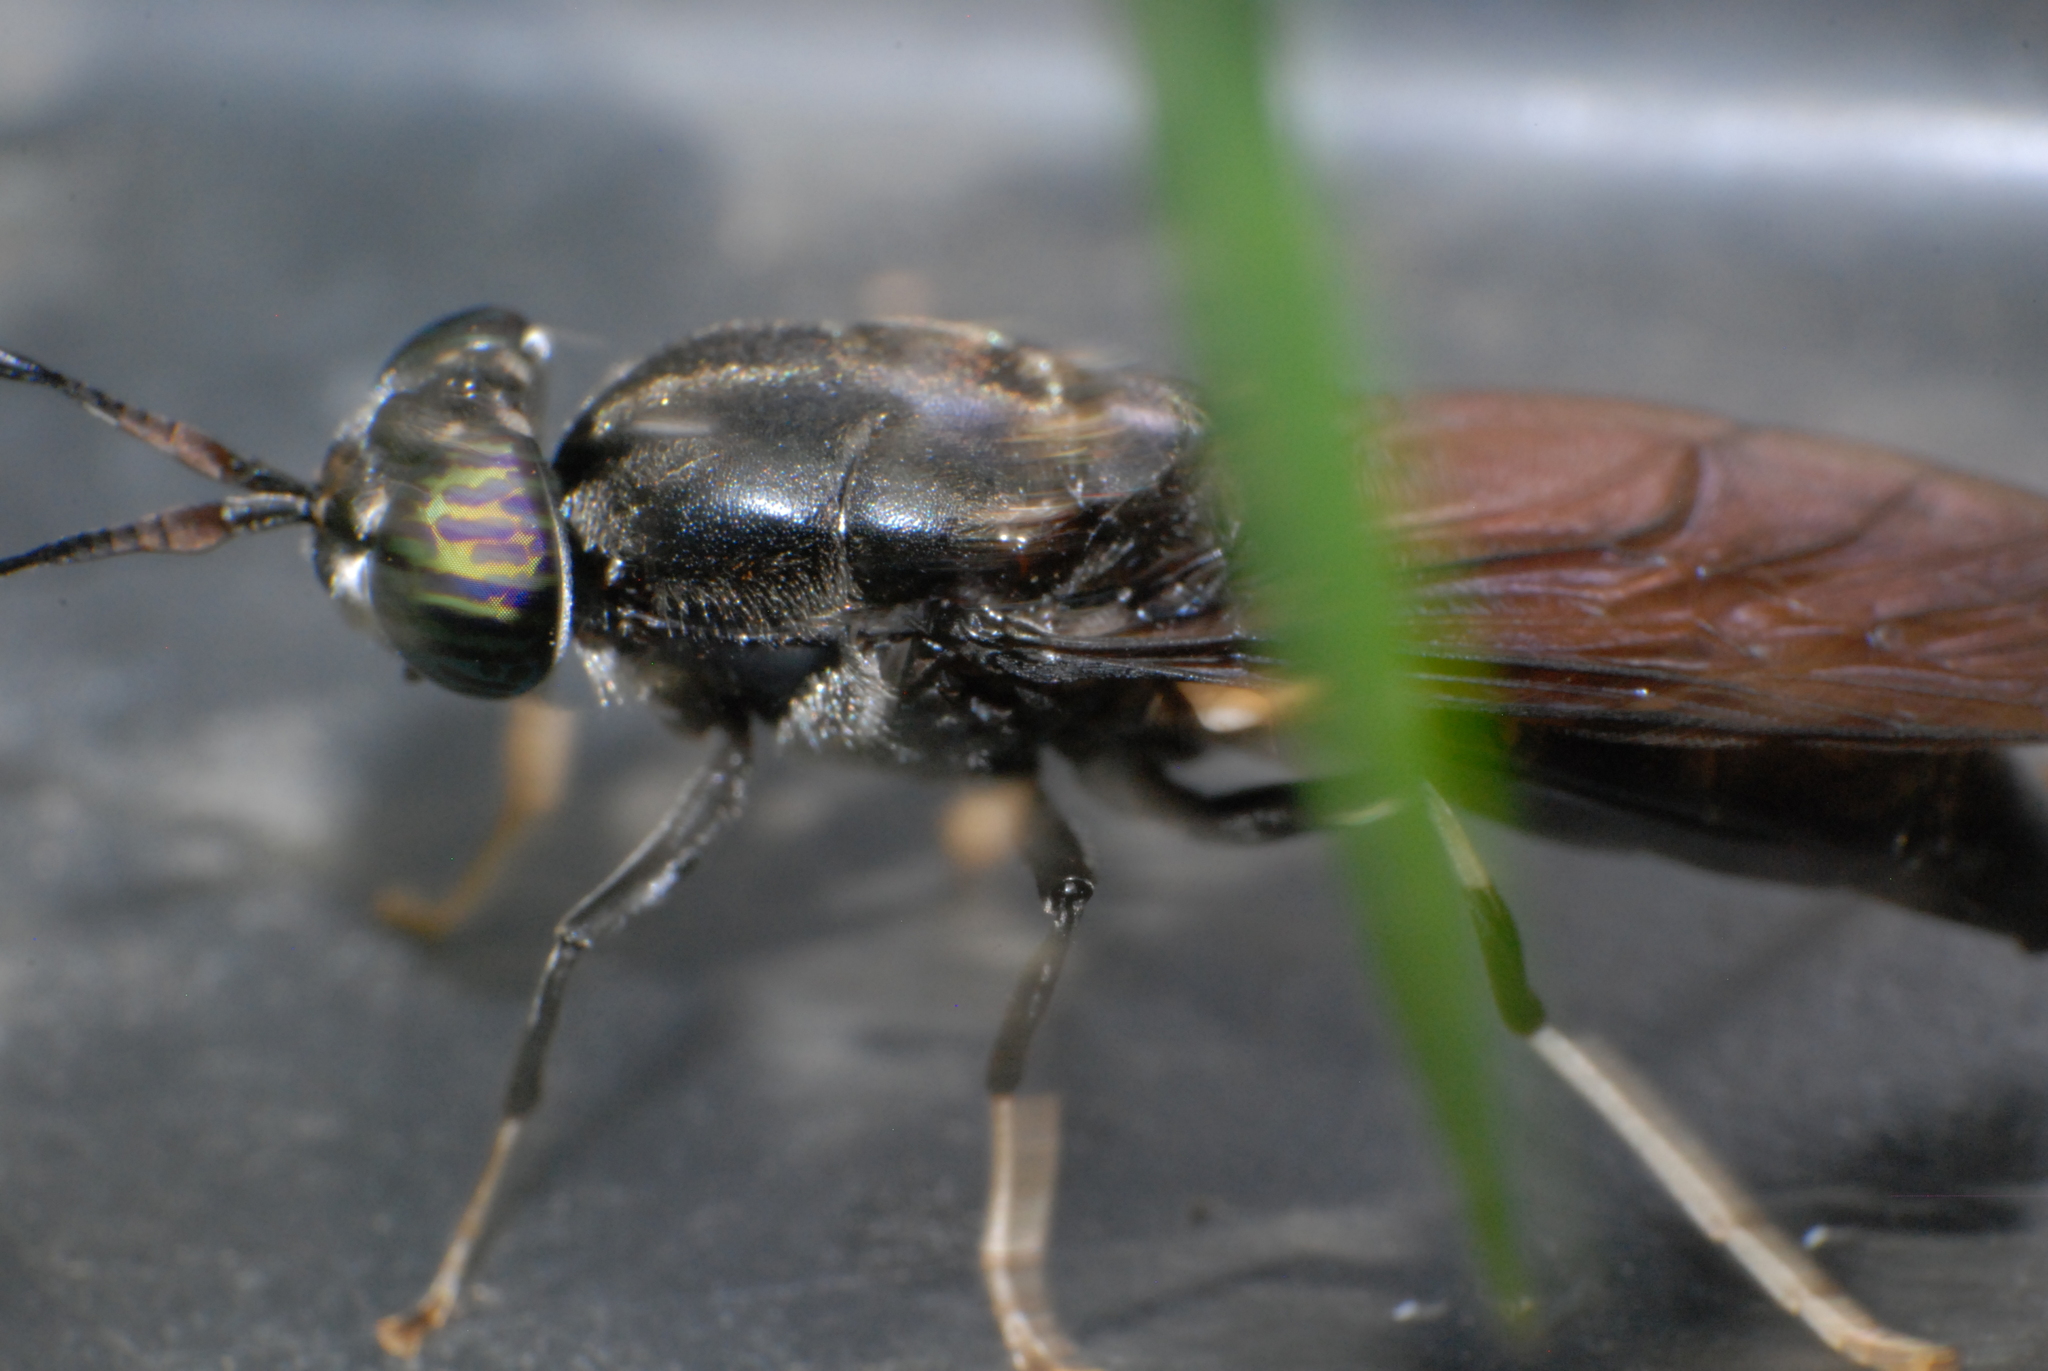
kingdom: Animalia
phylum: Arthropoda
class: Insecta
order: Diptera
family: Stratiomyidae
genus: Hermetia
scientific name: Hermetia illucens
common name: Black soldier fly
